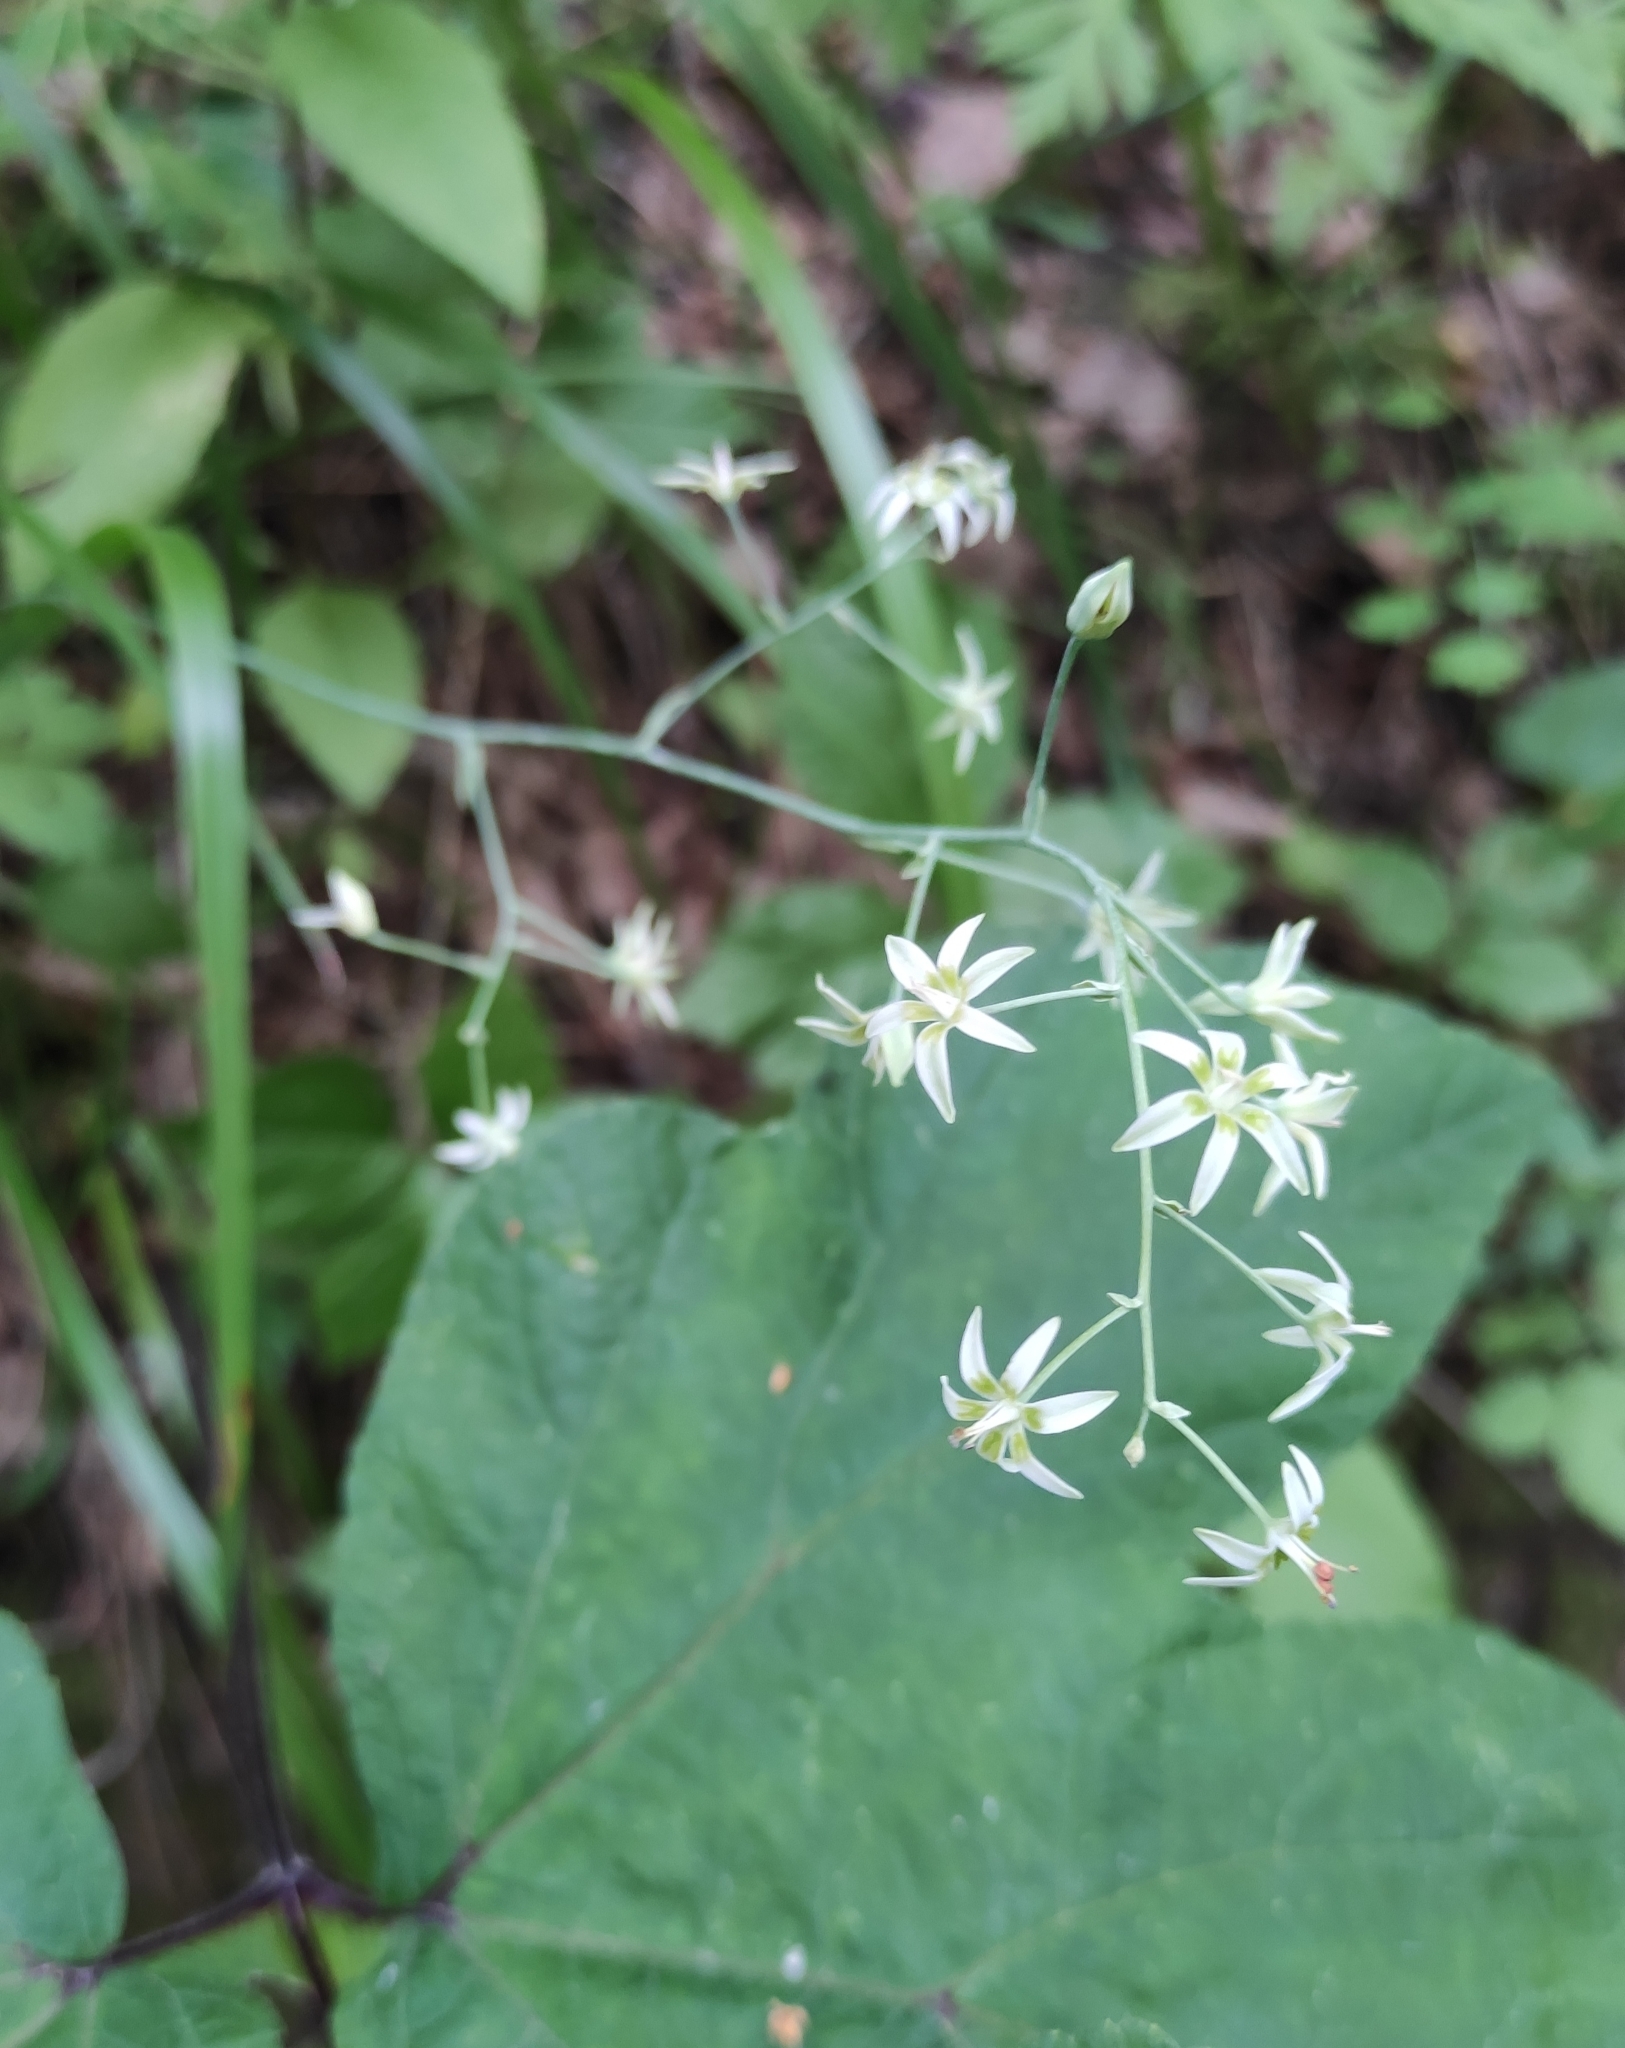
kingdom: Plantae
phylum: Tracheophyta
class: Liliopsida
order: Liliales
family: Melanthiaceae
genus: Anticlea
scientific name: Anticlea sibirica
